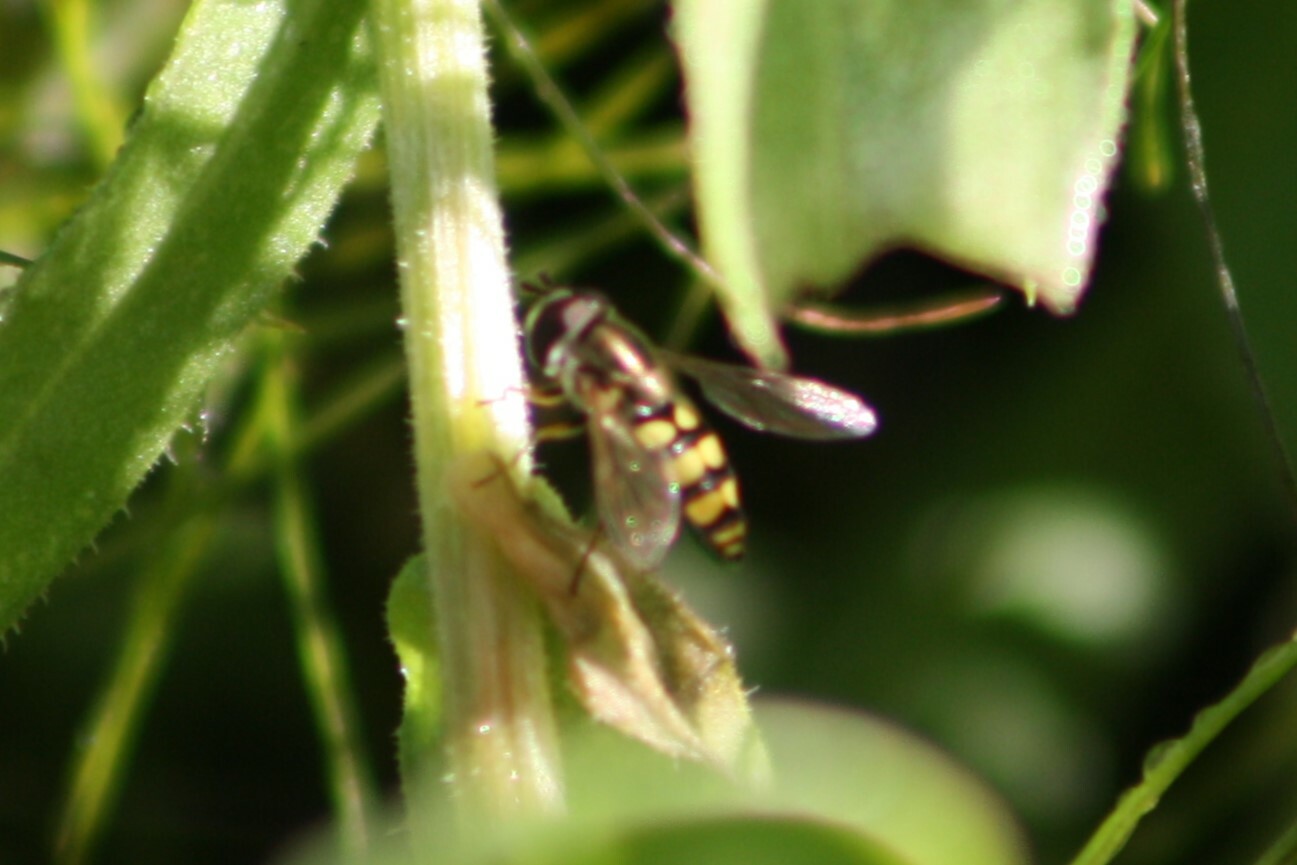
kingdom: Animalia
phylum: Arthropoda
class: Insecta
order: Diptera
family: Syrphidae
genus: Eupeodes
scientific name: Eupeodes
